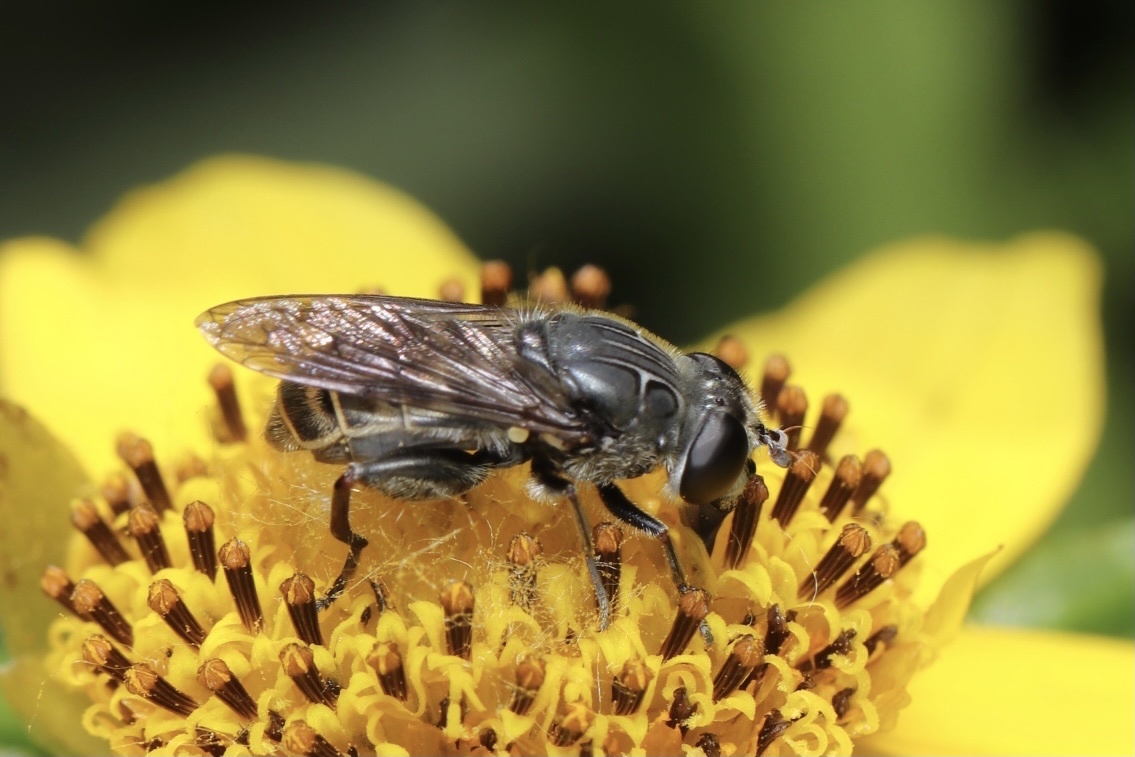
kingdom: Animalia
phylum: Arthropoda
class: Insecta
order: Diptera
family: Syrphidae
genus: Asemosyrphus
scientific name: Asemosyrphus
